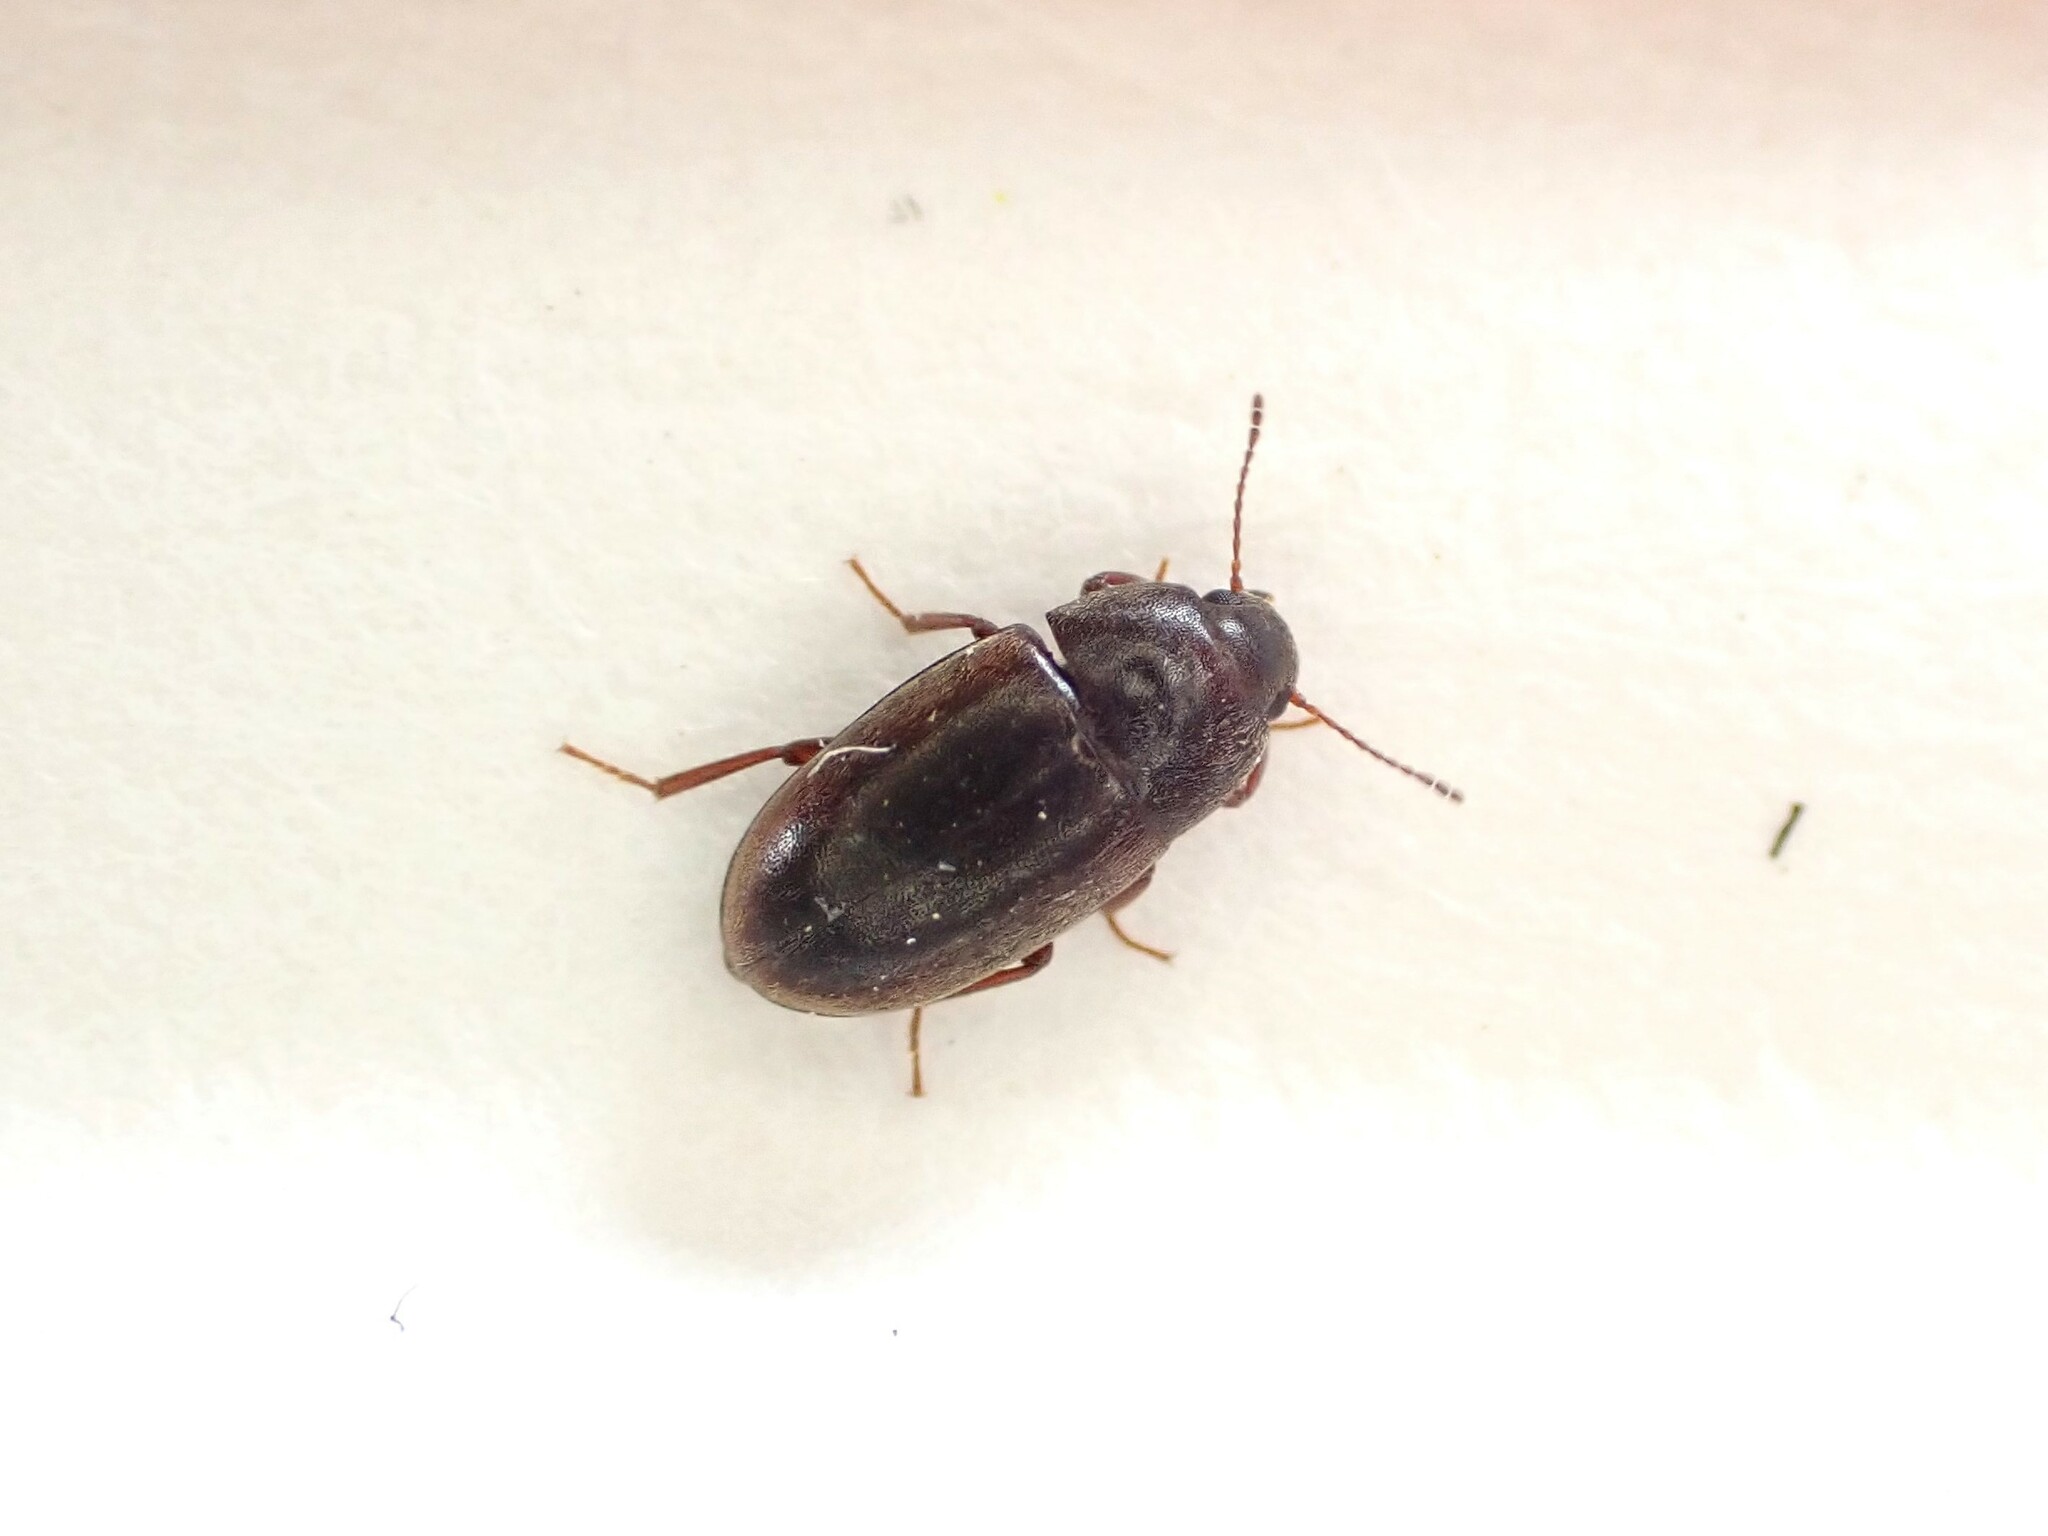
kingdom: Animalia
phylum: Arthropoda
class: Insecta
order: Coleoptera
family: Archeocrypticidae
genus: Enneboeus
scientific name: Enneboeus
